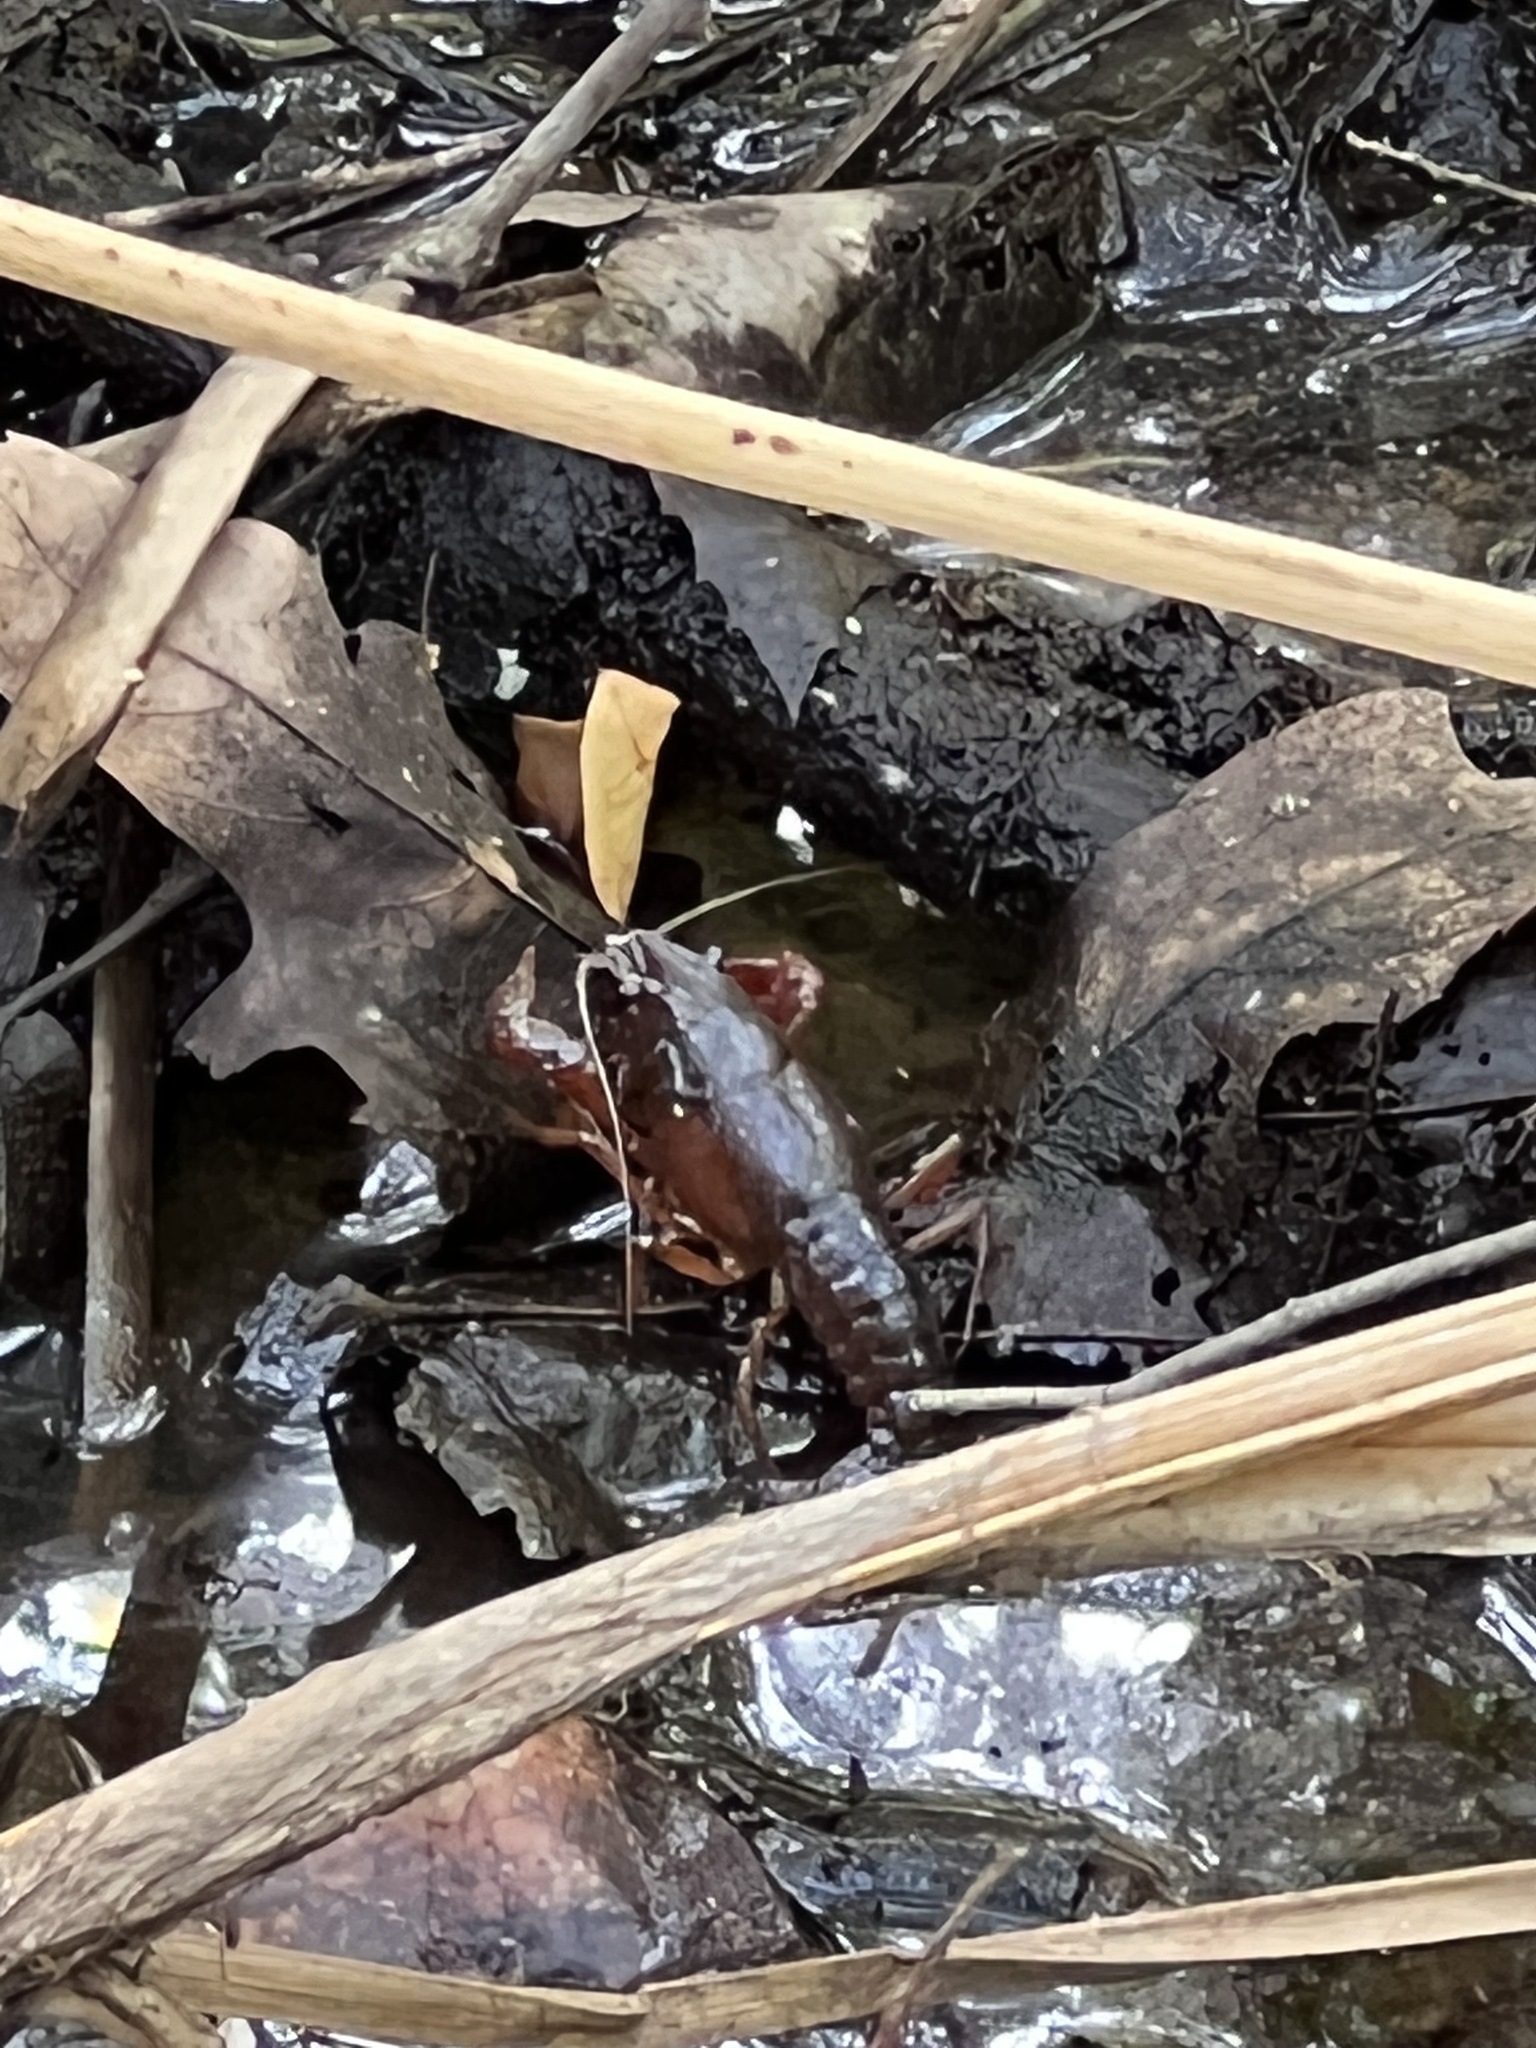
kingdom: Animalia
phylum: Arthropoda
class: Malacostraca
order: Decapoda
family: Cambaridae
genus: Procambarus
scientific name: Procambarus clarkii
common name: Red swamp crayfish
